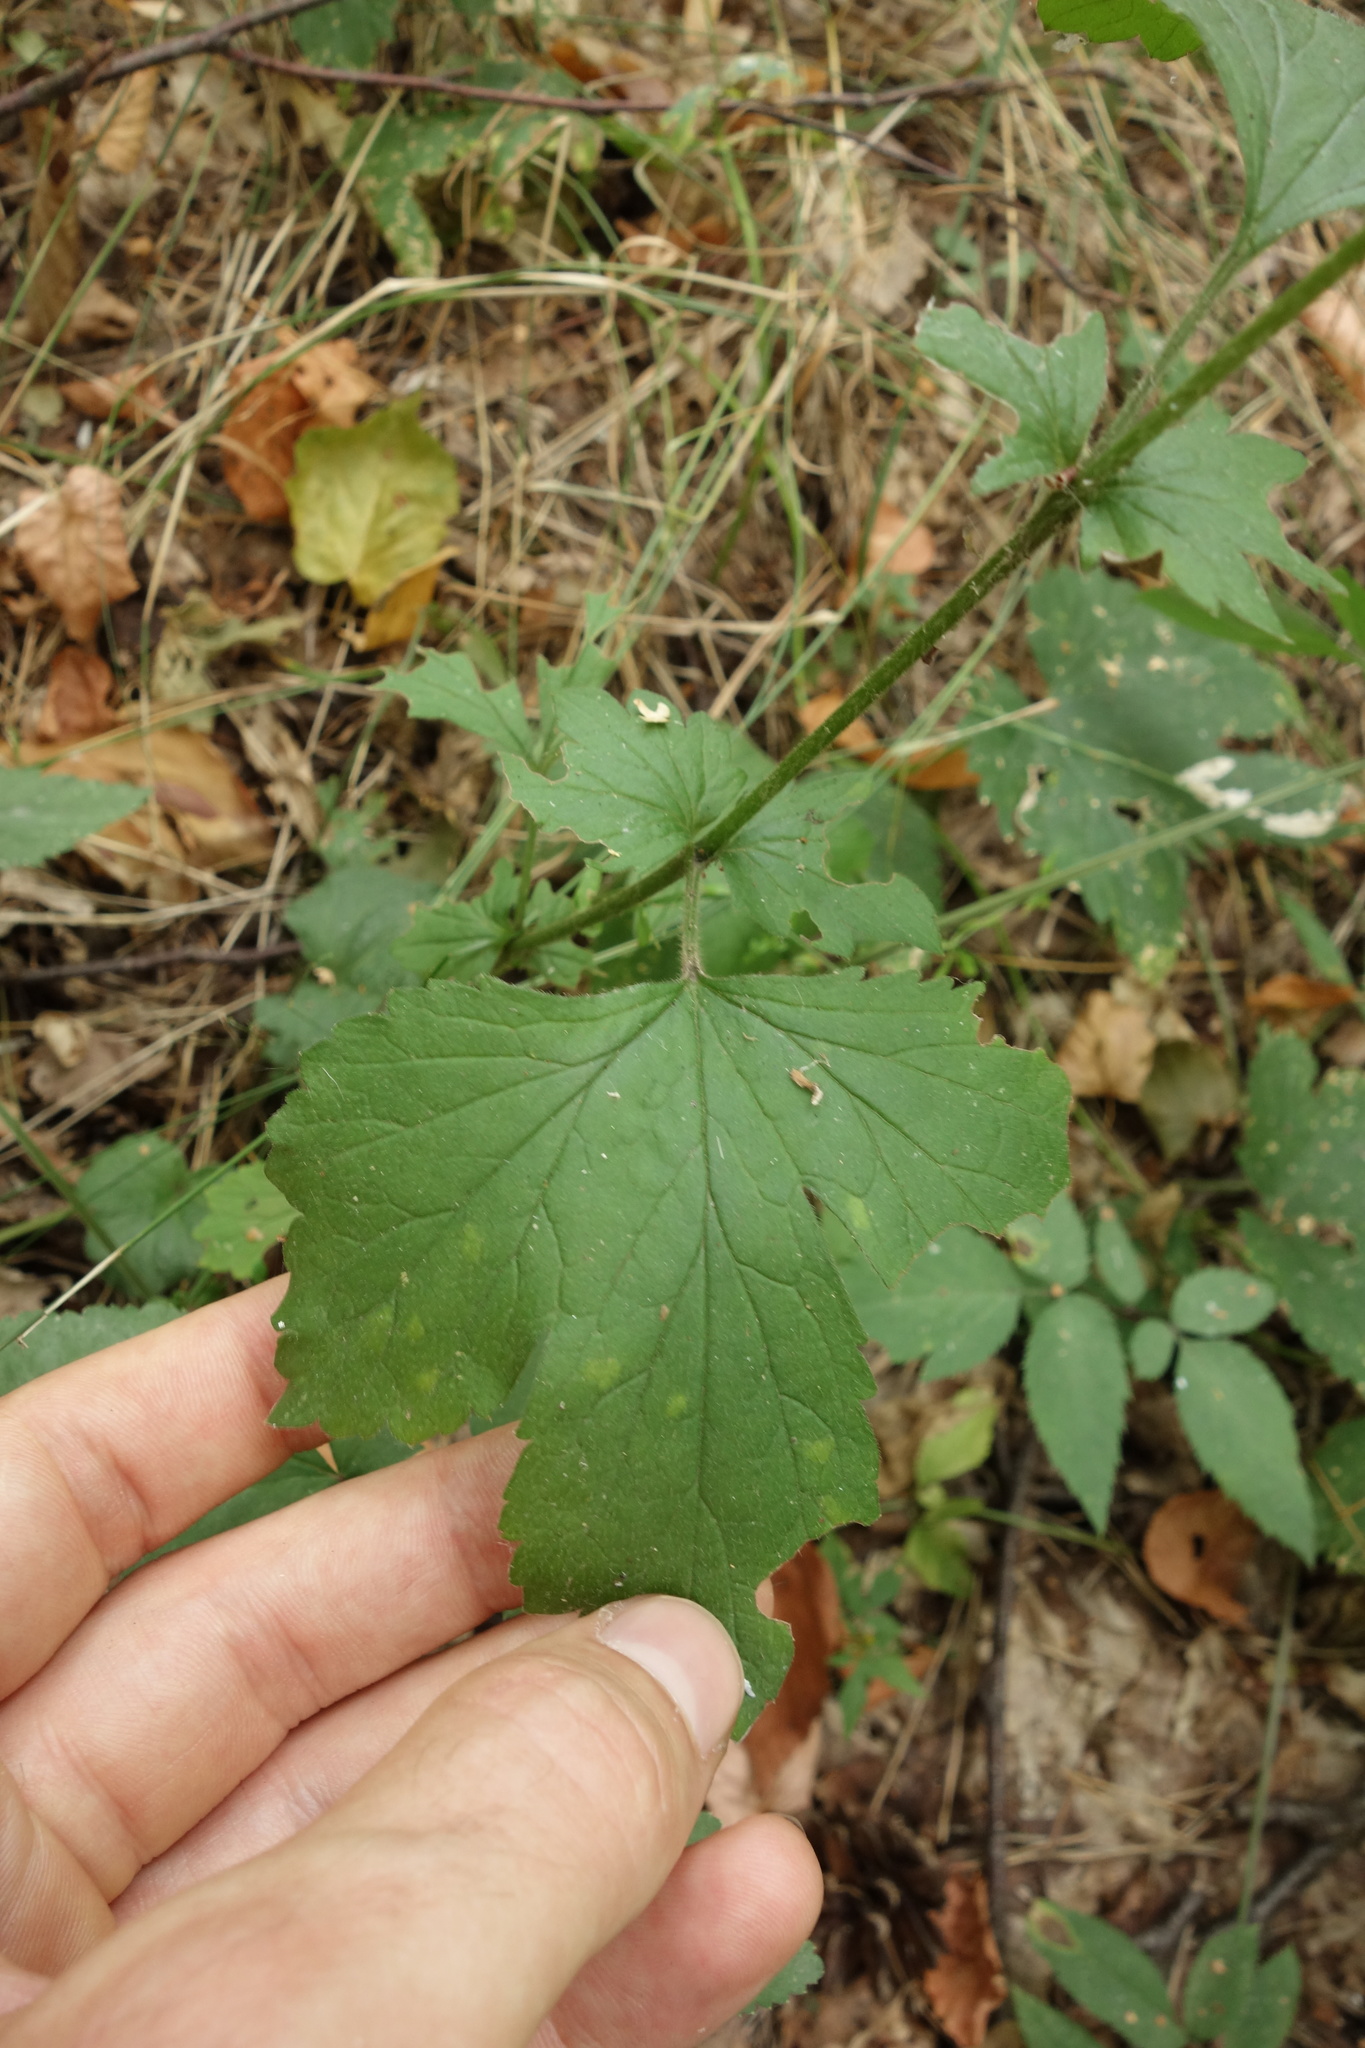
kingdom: Plantae
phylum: Tracheophyta
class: Magnoliopsida
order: Rosales
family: Rosaceae
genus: Geum
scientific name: Geum urbanum
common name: Wood avens
